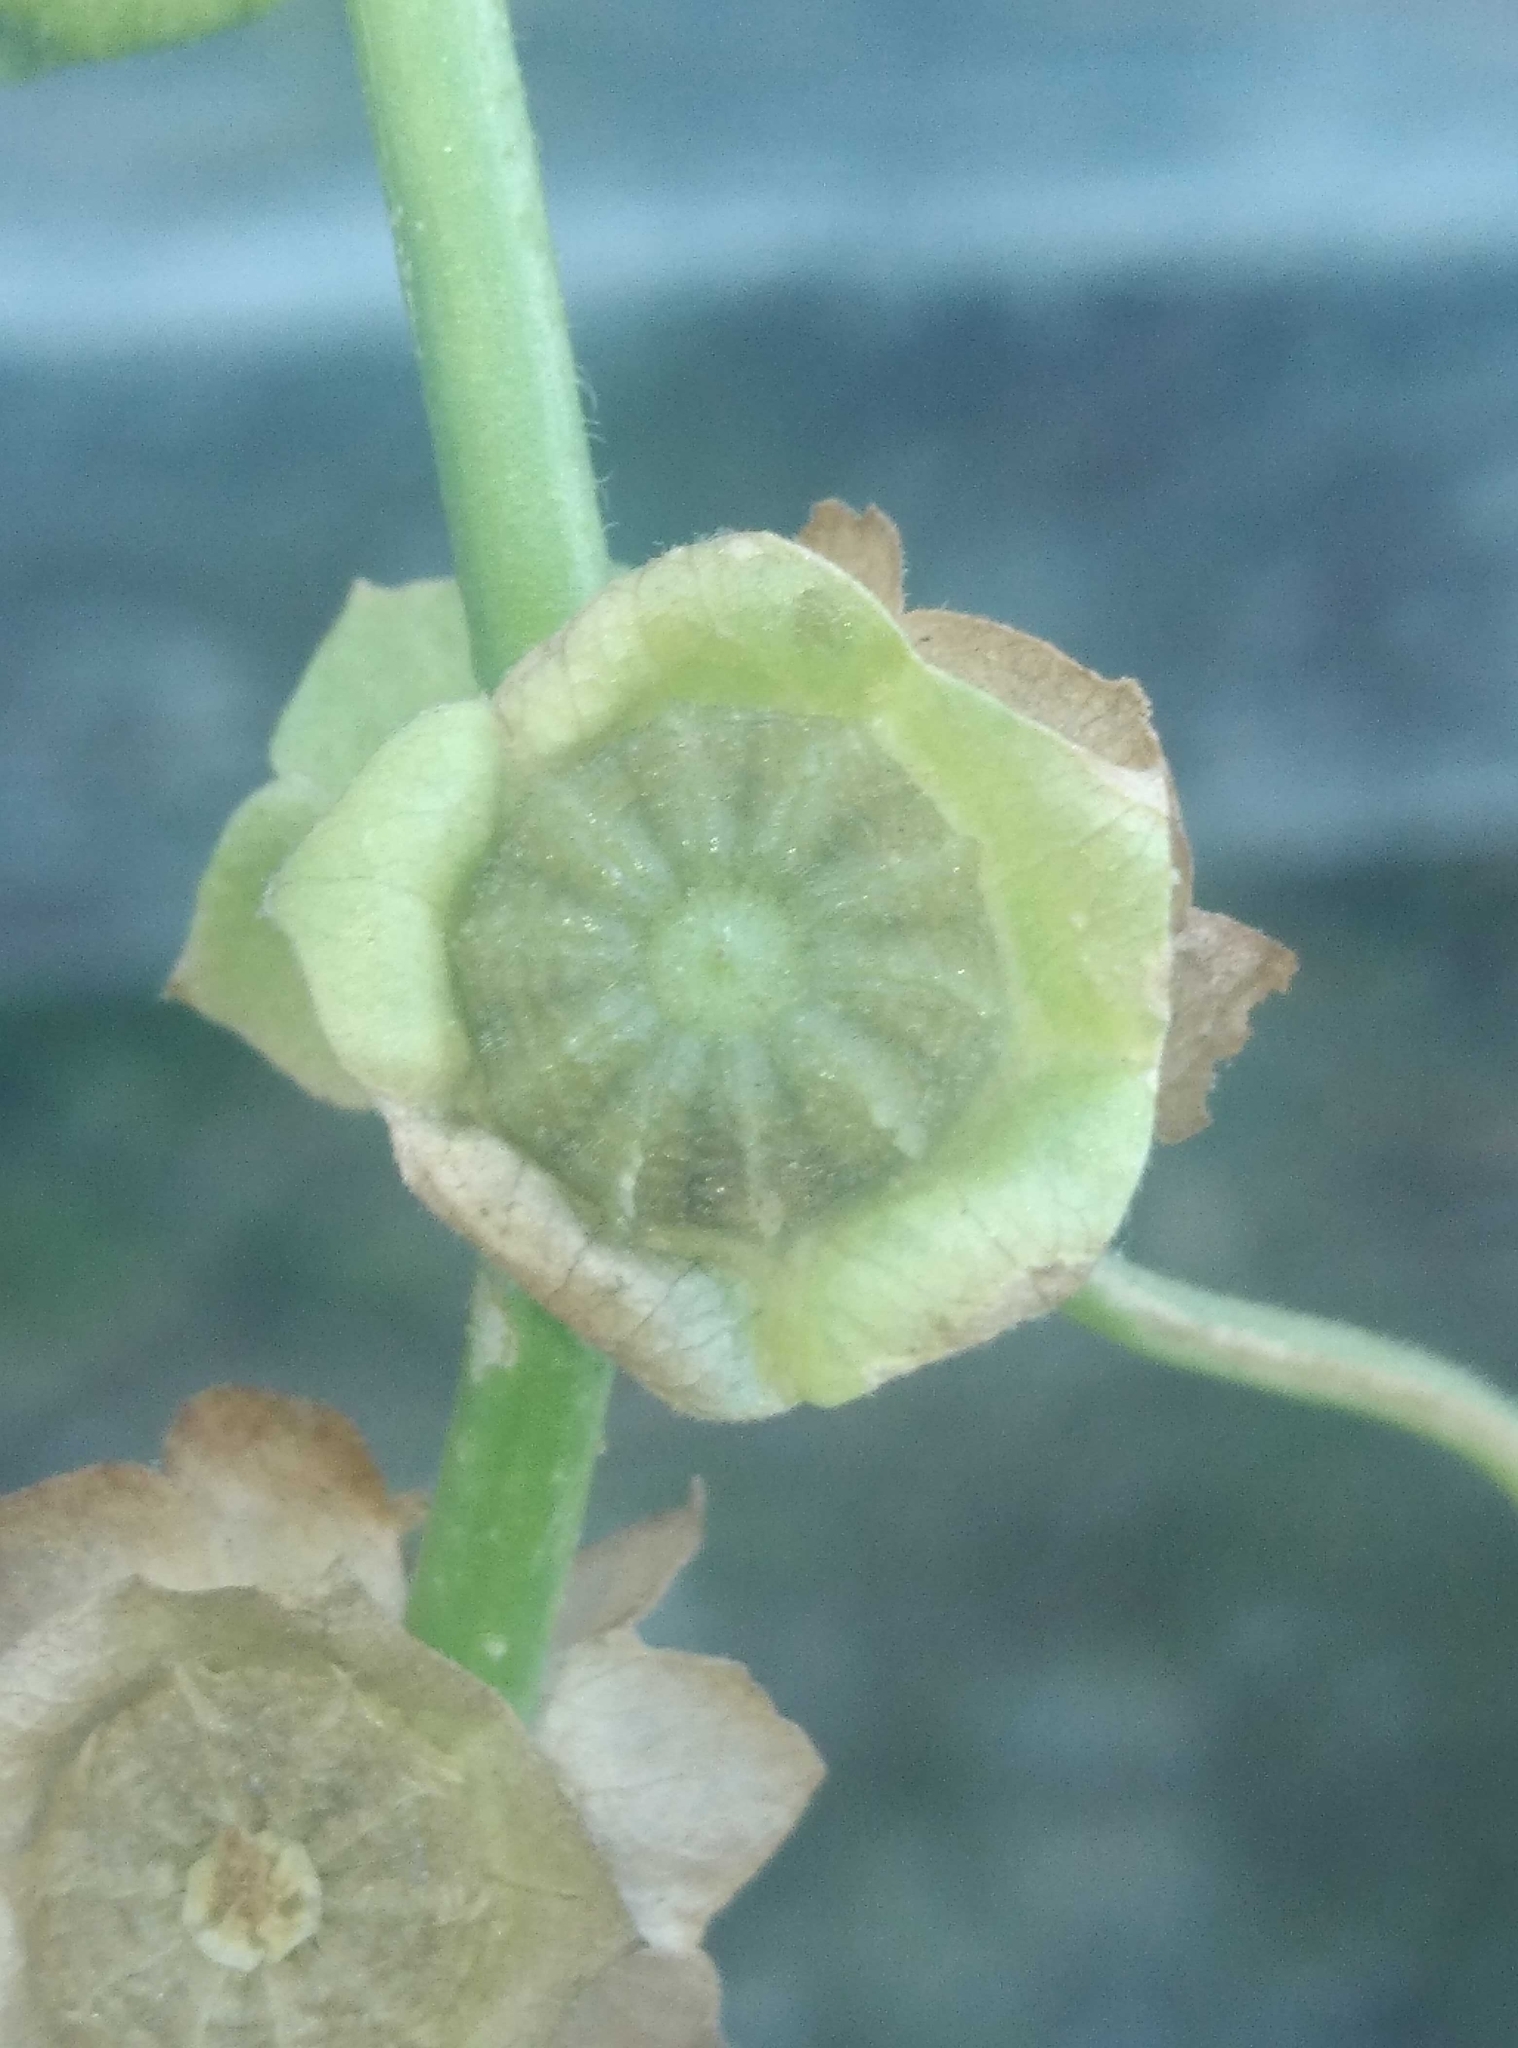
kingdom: Plantae
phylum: Tracheophyta
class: Magnoliopsida
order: Malvales
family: Malvaceae
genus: Malva
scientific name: Malva parviflora
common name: Least mallow
